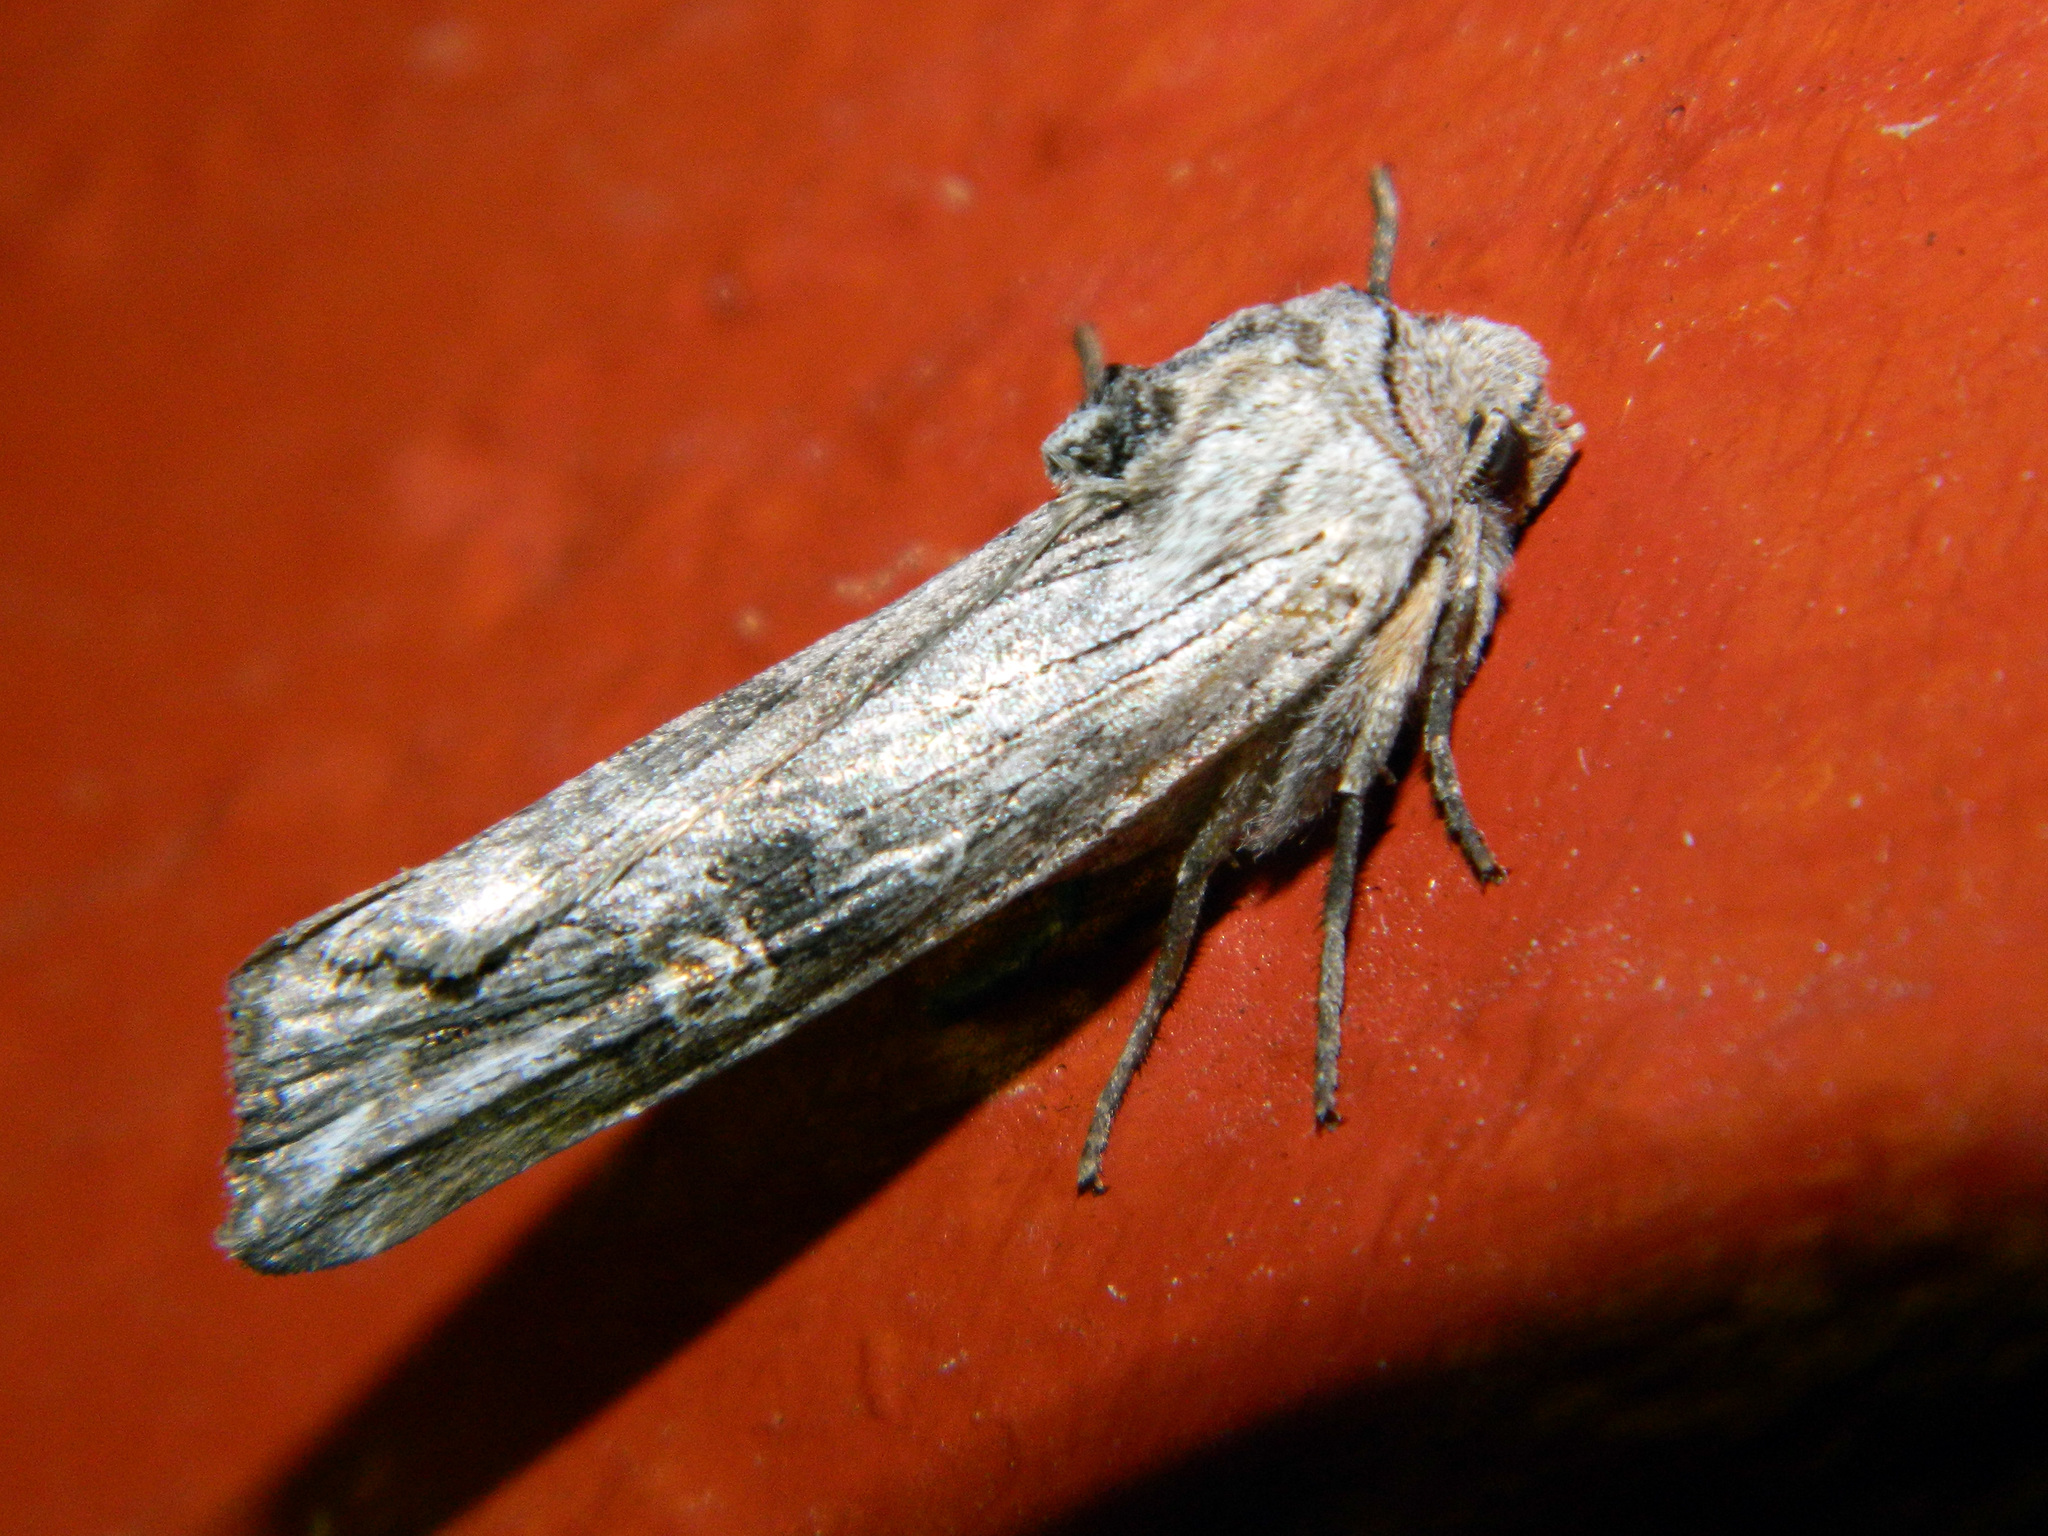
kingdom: Animalia
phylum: Arthropoda
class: Insecta
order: Lepidoptera
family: Noctuidae
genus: Xylena
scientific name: Xylena germana
